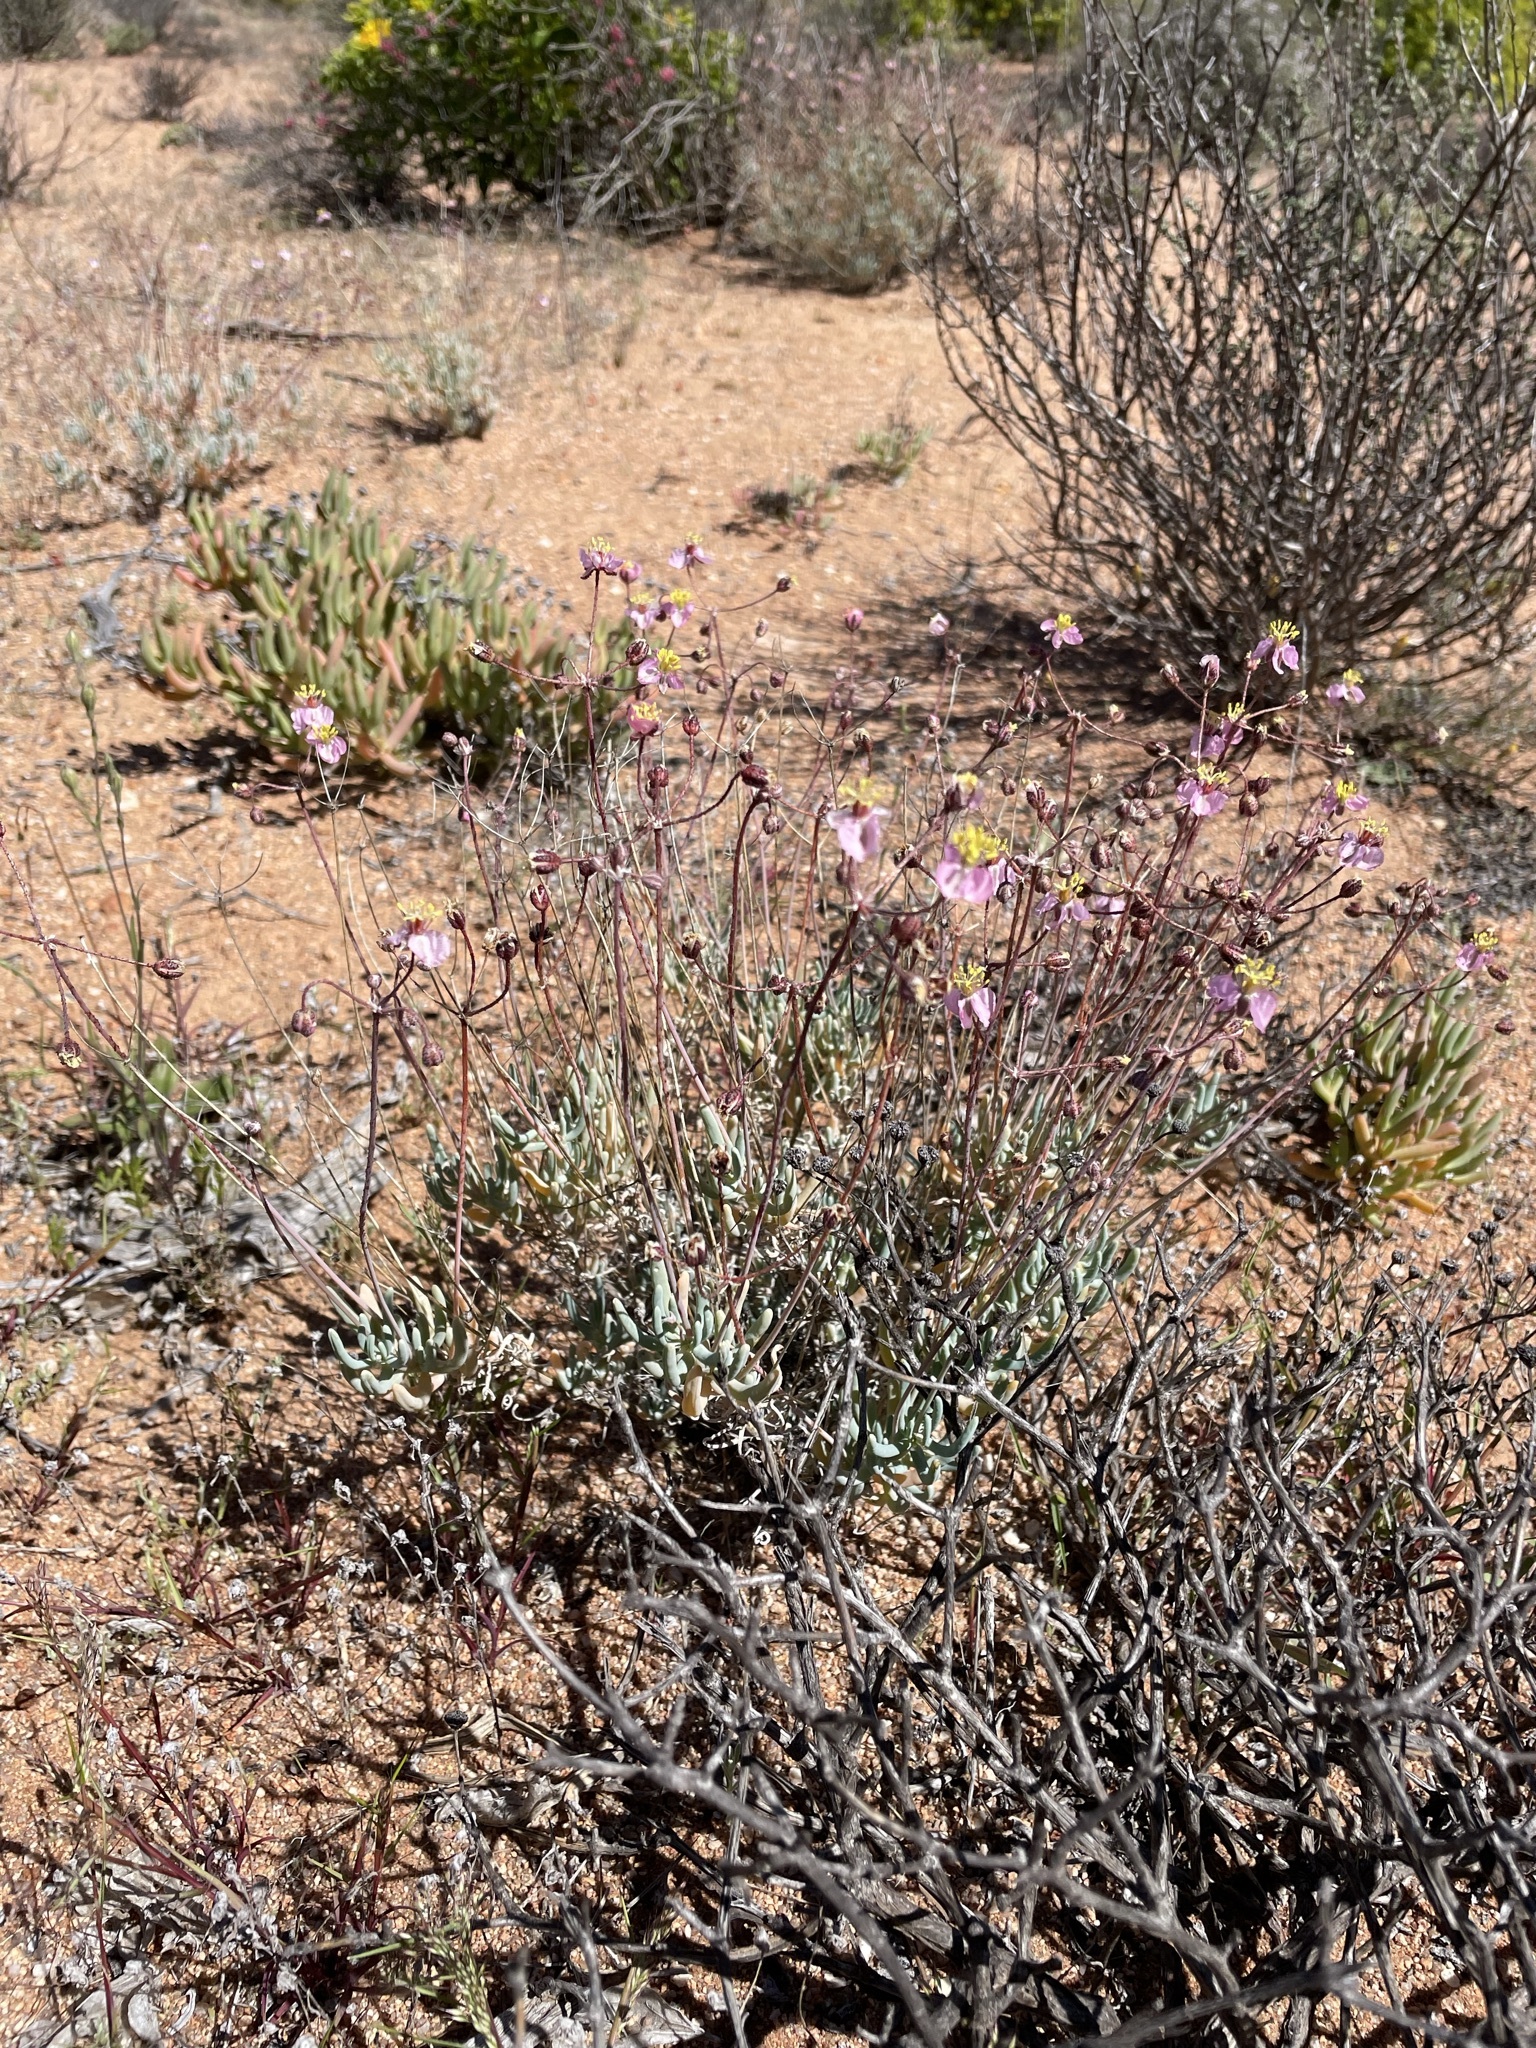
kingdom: Plantae
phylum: Tracheophyta
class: Magnoliopsida
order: Caryophyllales
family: Kewaceae
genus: Kewa
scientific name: Kewa salsoloides
